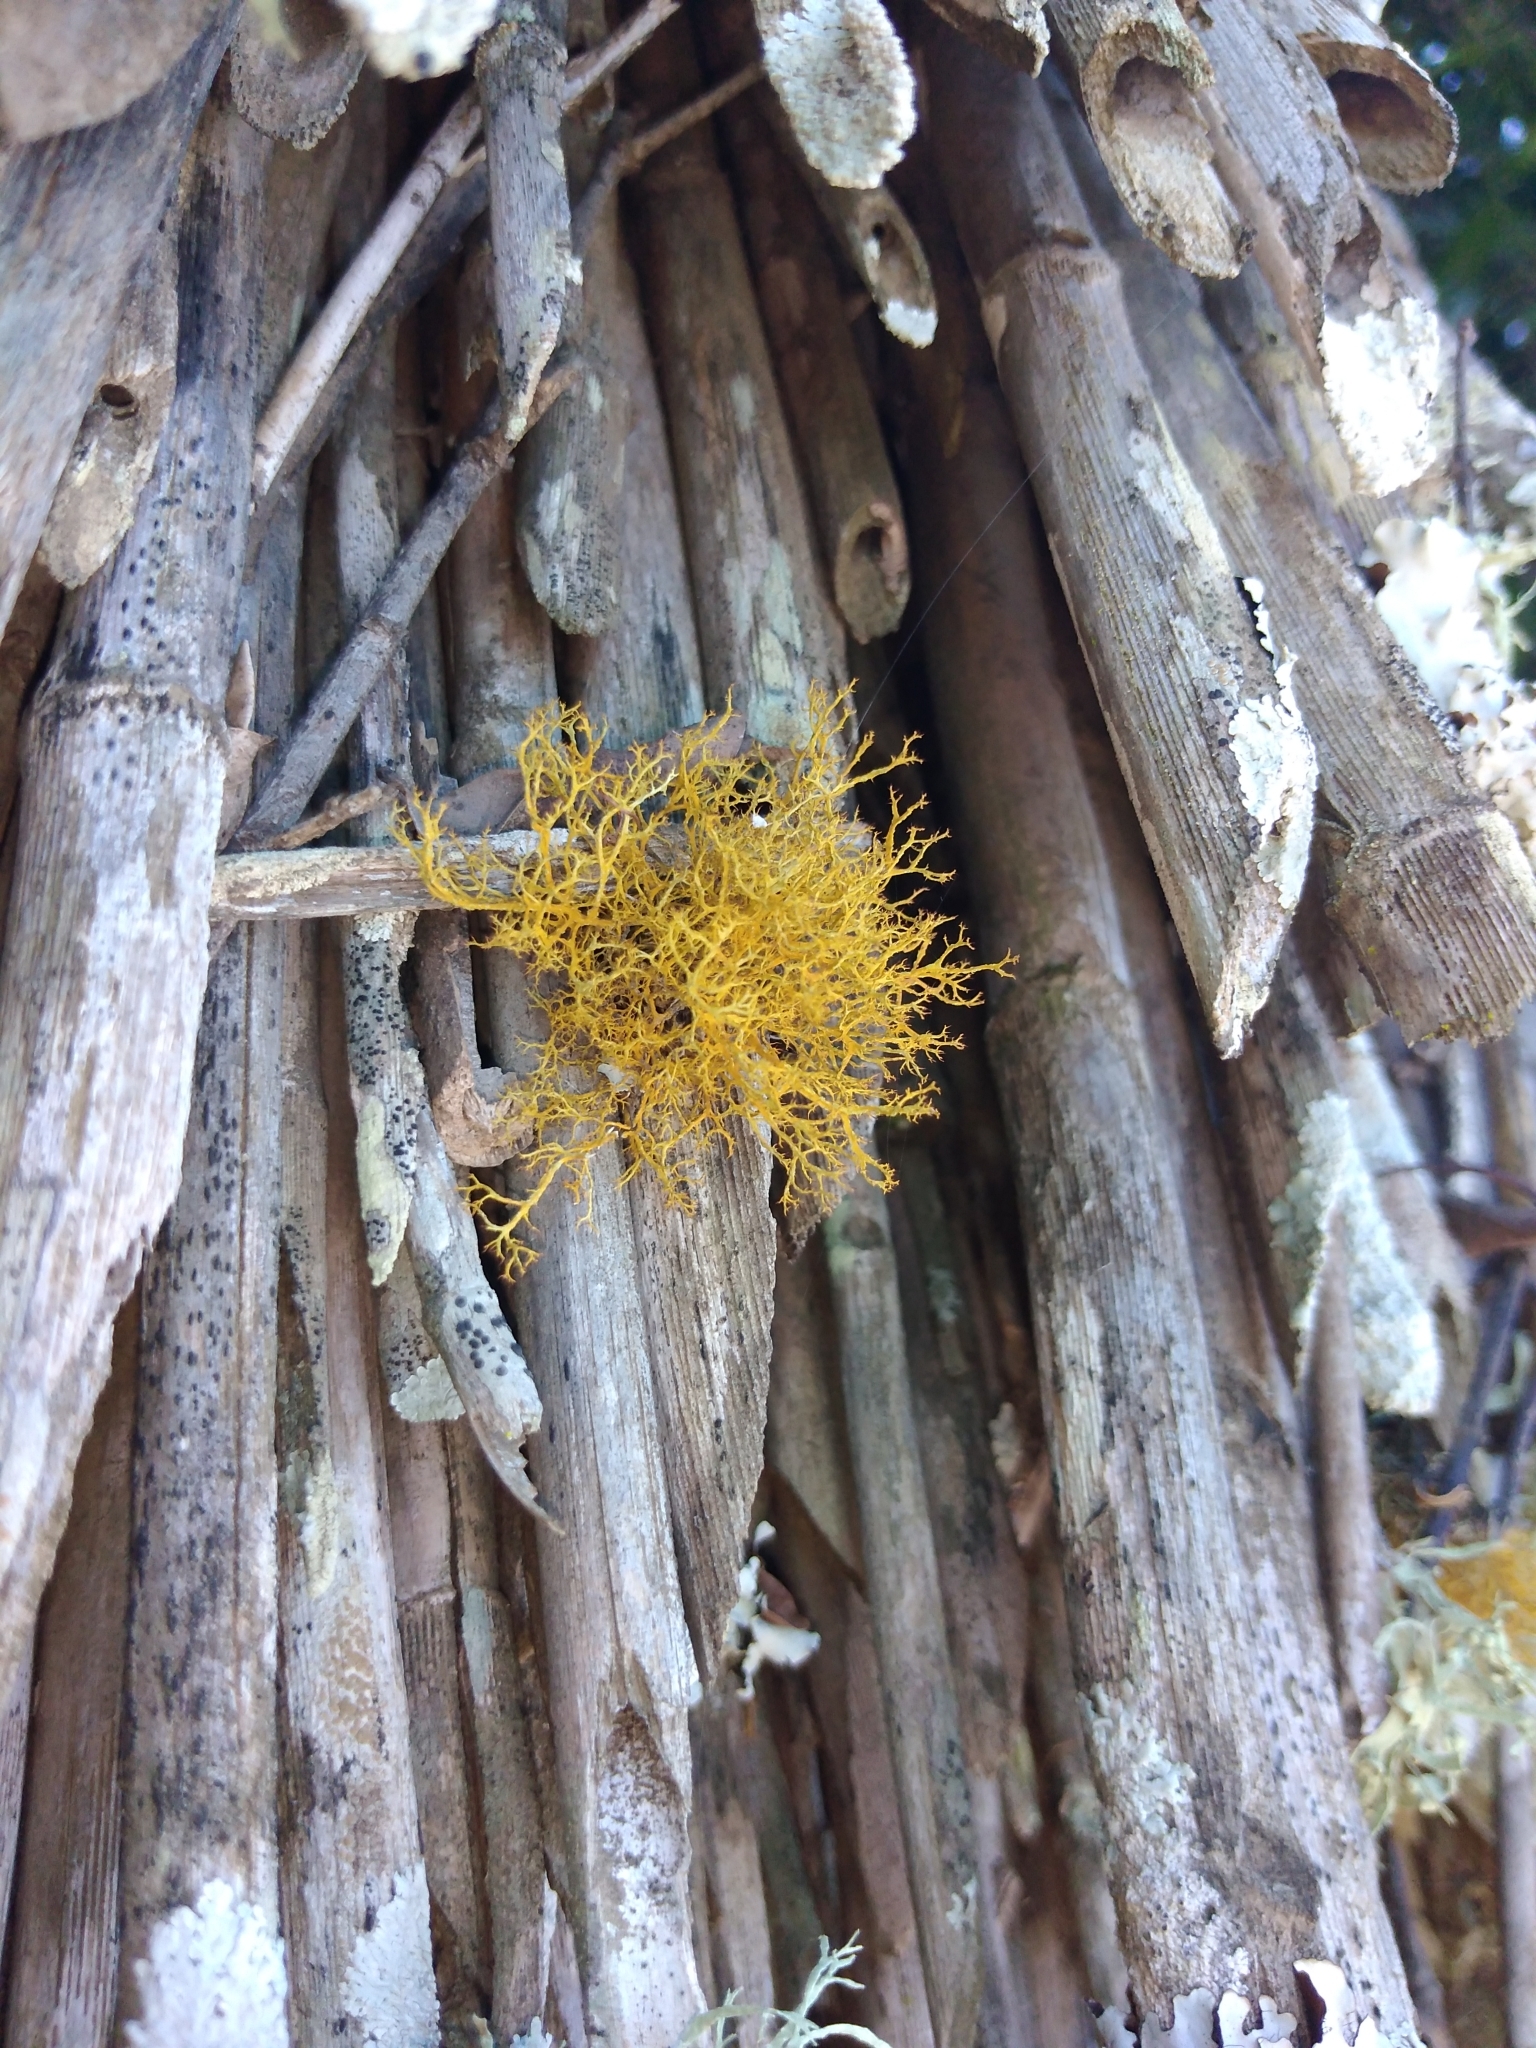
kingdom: Fungi
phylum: Ascomycota
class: Lecanoromycetes
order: Teloschistales
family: Teloschistaceae
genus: Teloschistes
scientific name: Teloschistes flavicans
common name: Golden hair-lichen
